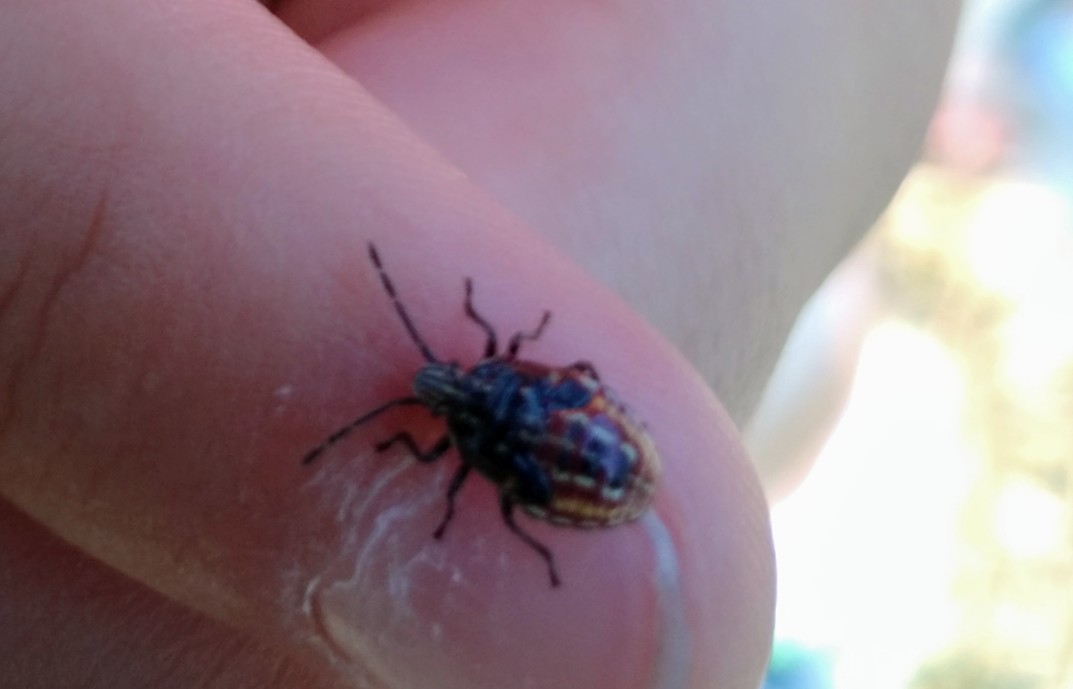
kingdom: Animalia
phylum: Arthropoda
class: Insecta
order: Hemiptera
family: Acanthosomatidae
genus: Elasmucha
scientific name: Elasmucha lateralis
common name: Shield bug
